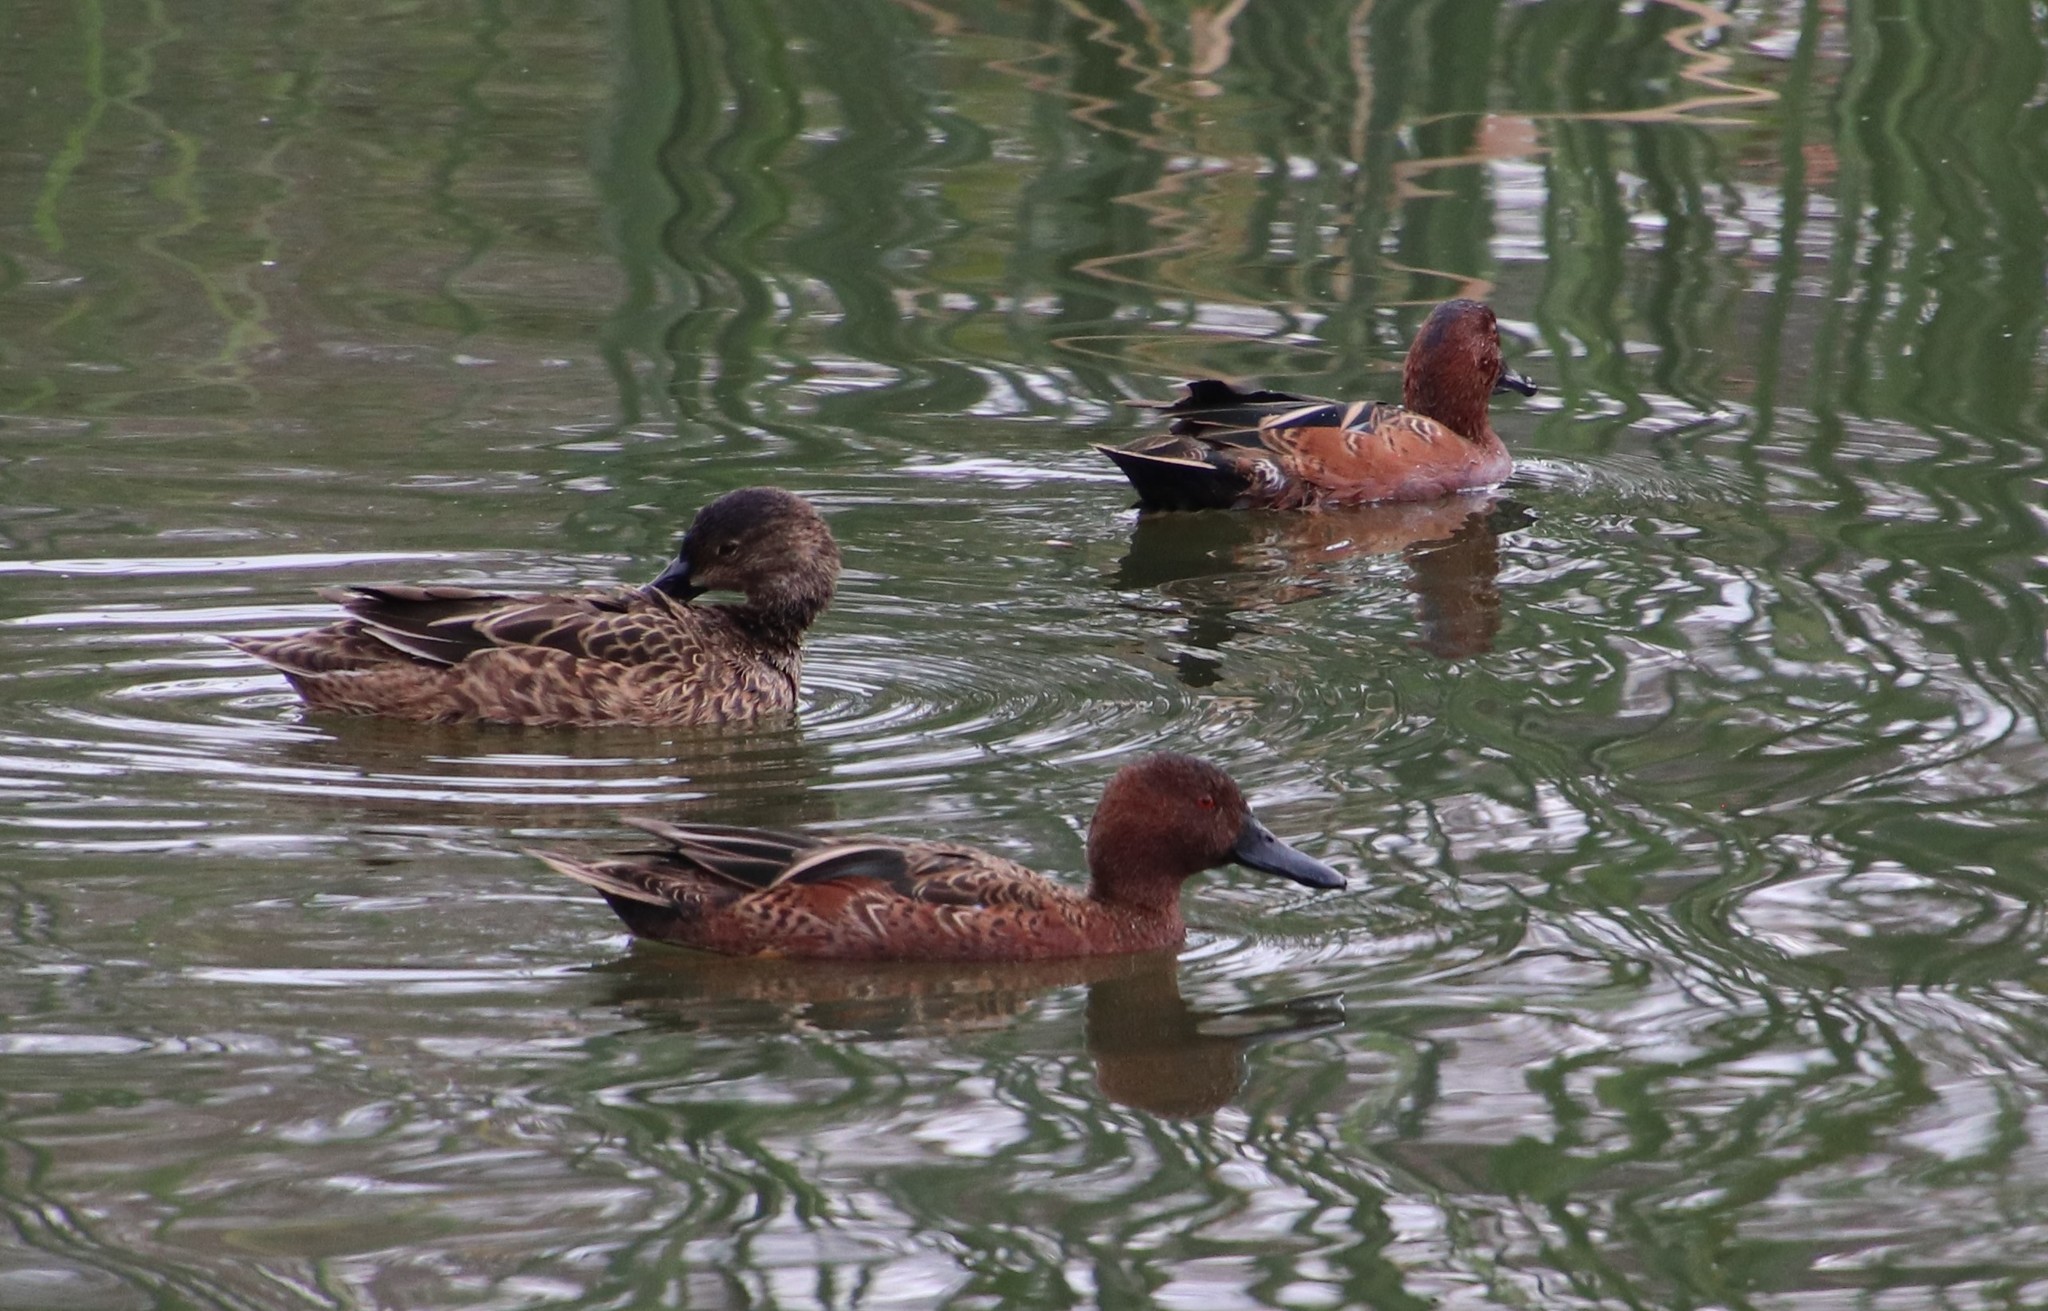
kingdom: Animalia
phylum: Chordata
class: Aves
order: Anseriformes
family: Anatidae
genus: Spatula
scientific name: Spatula cyanoptera
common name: Cinnamon teal
